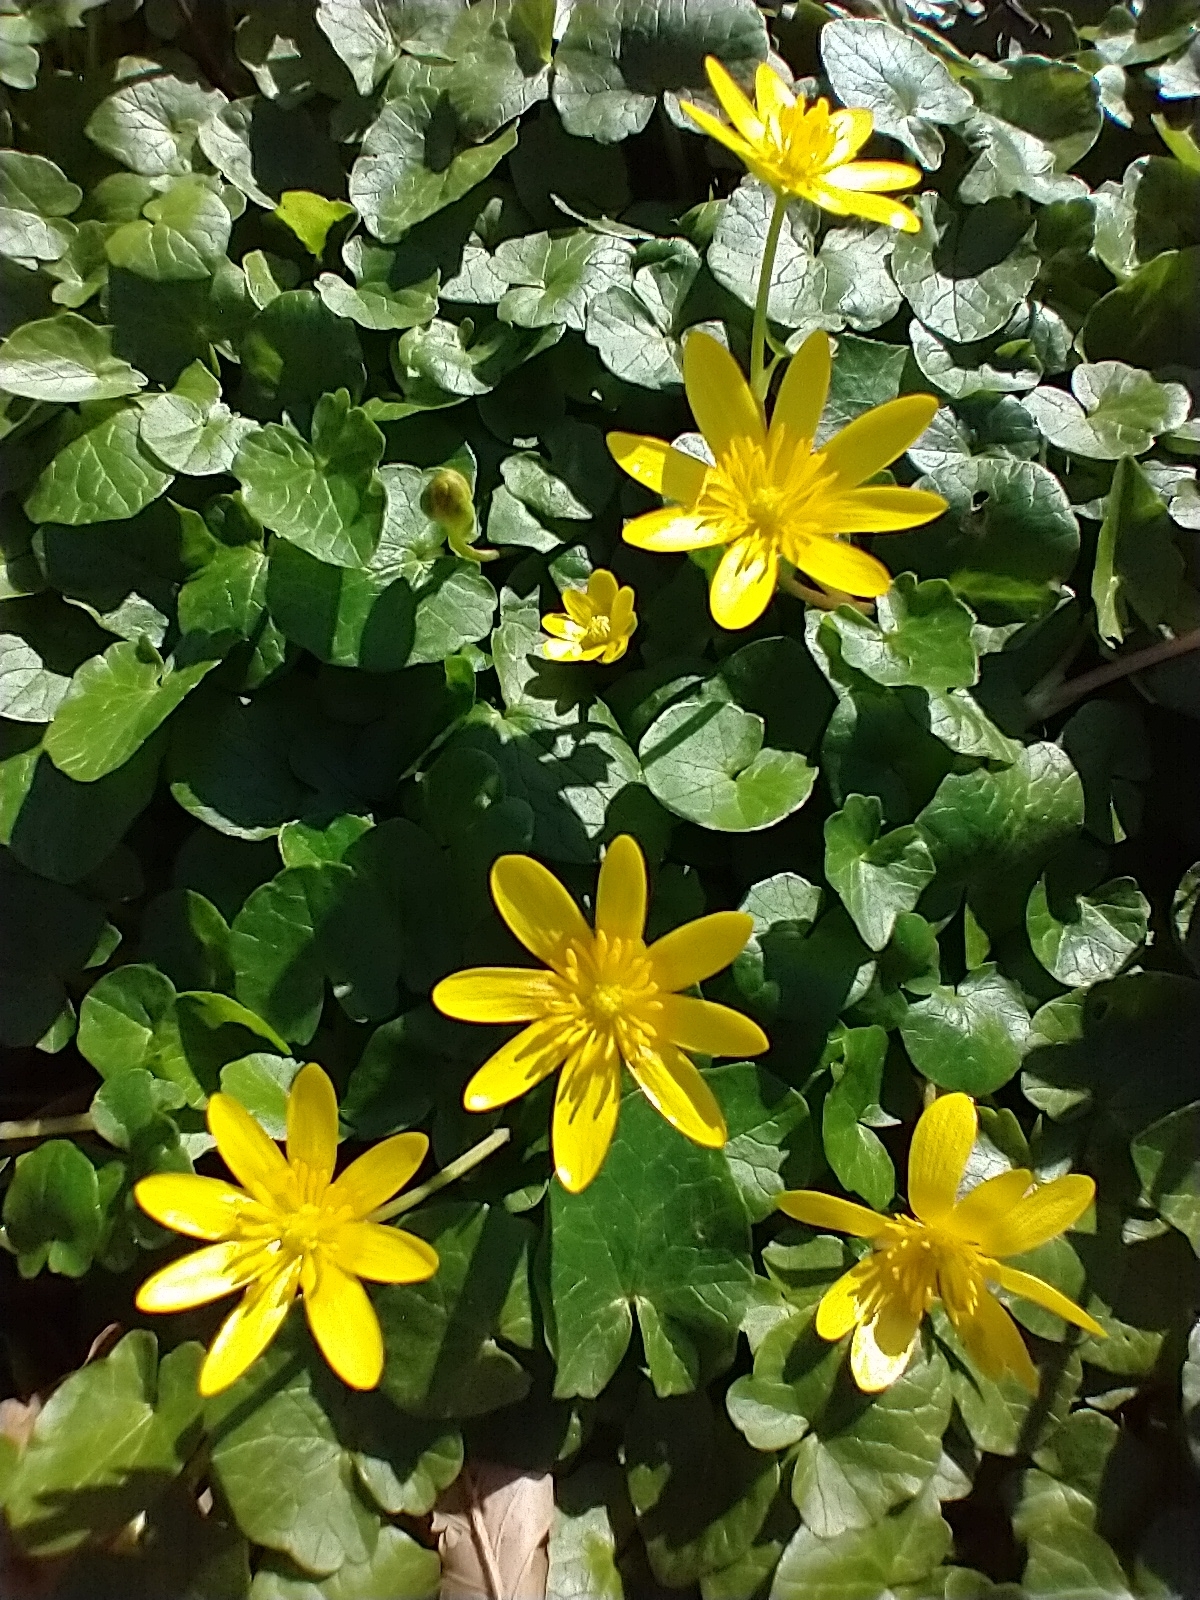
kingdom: Plantae
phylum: Tracheophyta
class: Magnoliopsida
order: Ranunculales
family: Ranunculaceae
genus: Ficaria
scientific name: Ficaria verna
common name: Lesser celandine
